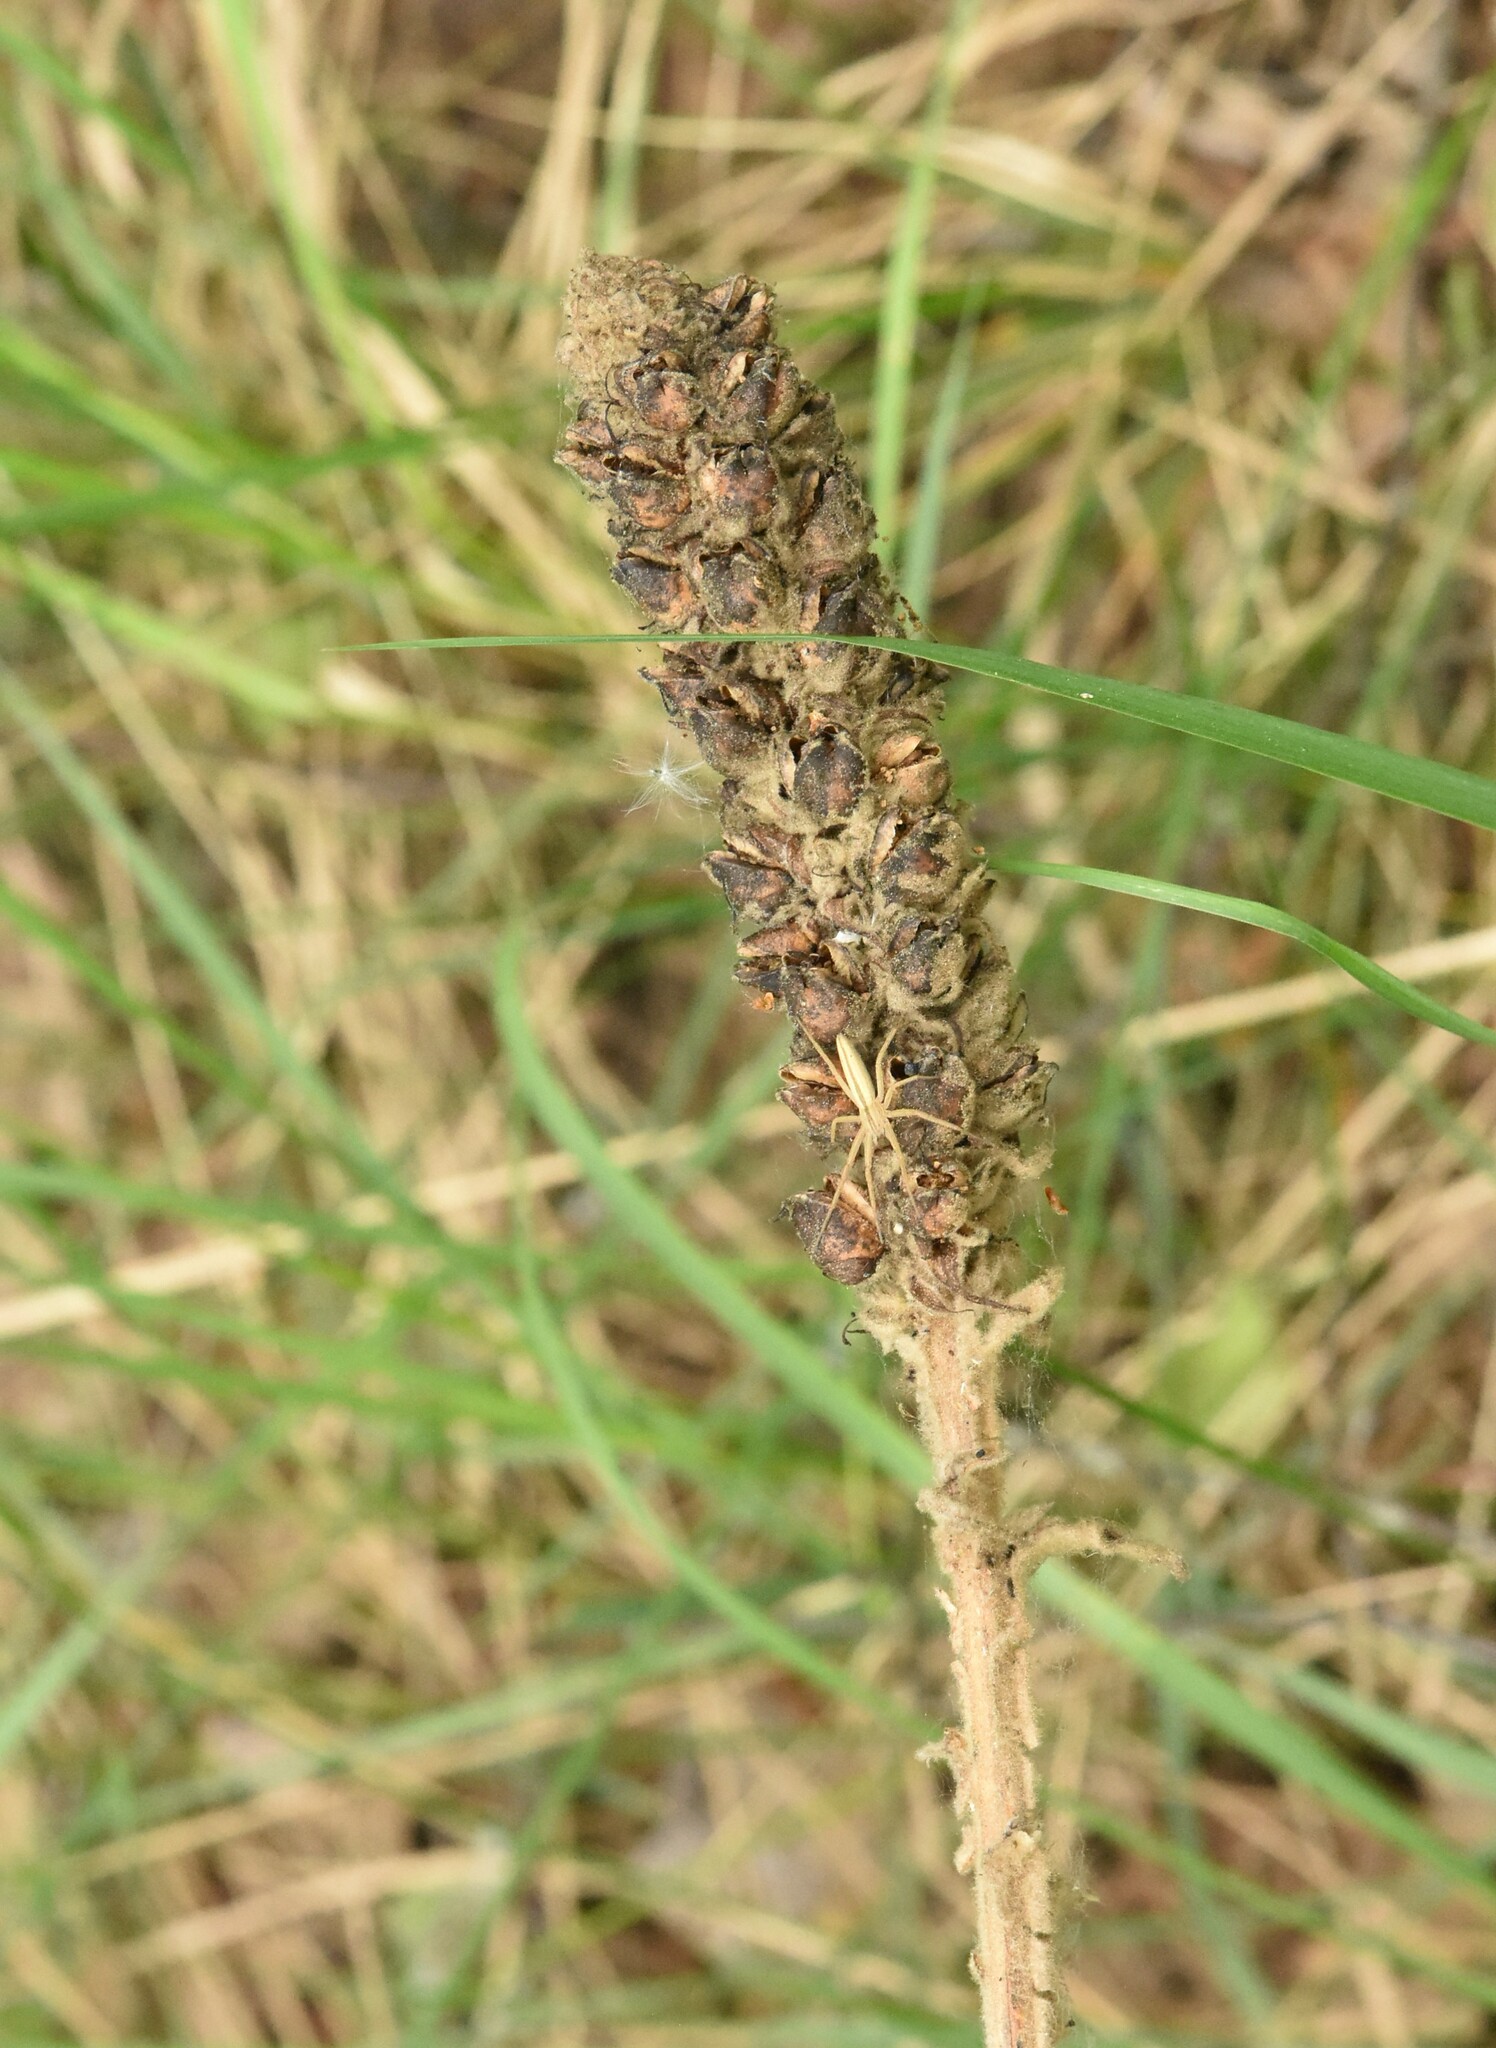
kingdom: Plantae
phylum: Tracheophyta
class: Magnoliopsida
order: Lamiales
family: Scrophulariaceae
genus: Verbascum
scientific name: Verbascum thapsus
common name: Common mullein
